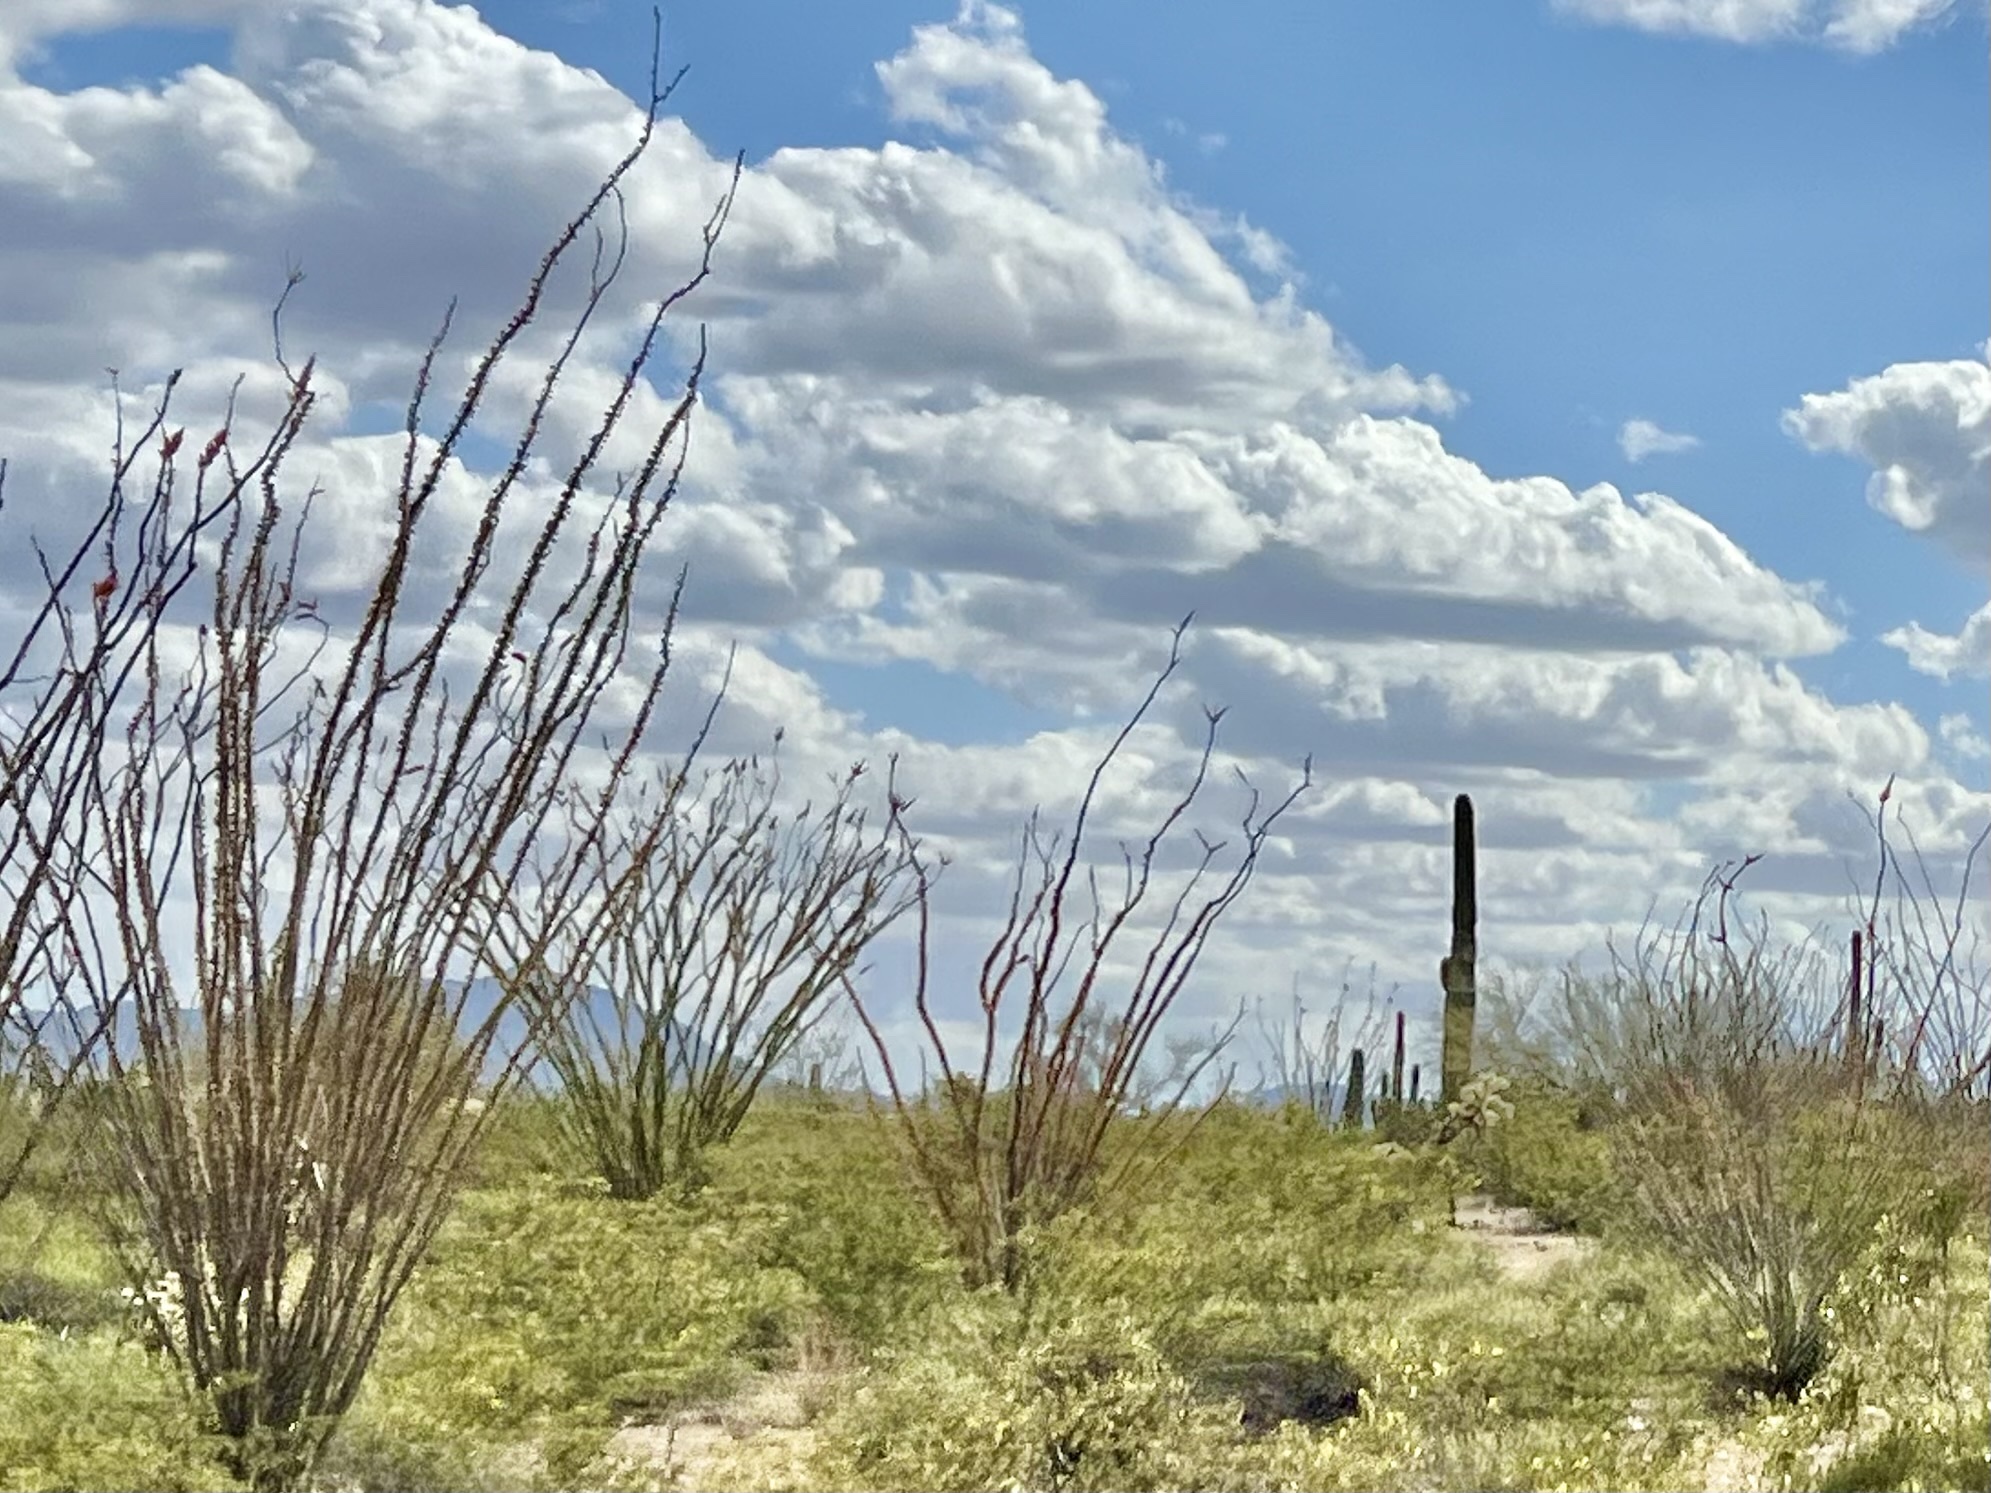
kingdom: Plantae
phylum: Tracheophyta
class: Magnoliopsida
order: Ericales
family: Fouquieriaceae
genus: Fouquieria
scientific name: Fouquieria splendens
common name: Vine-cactus
